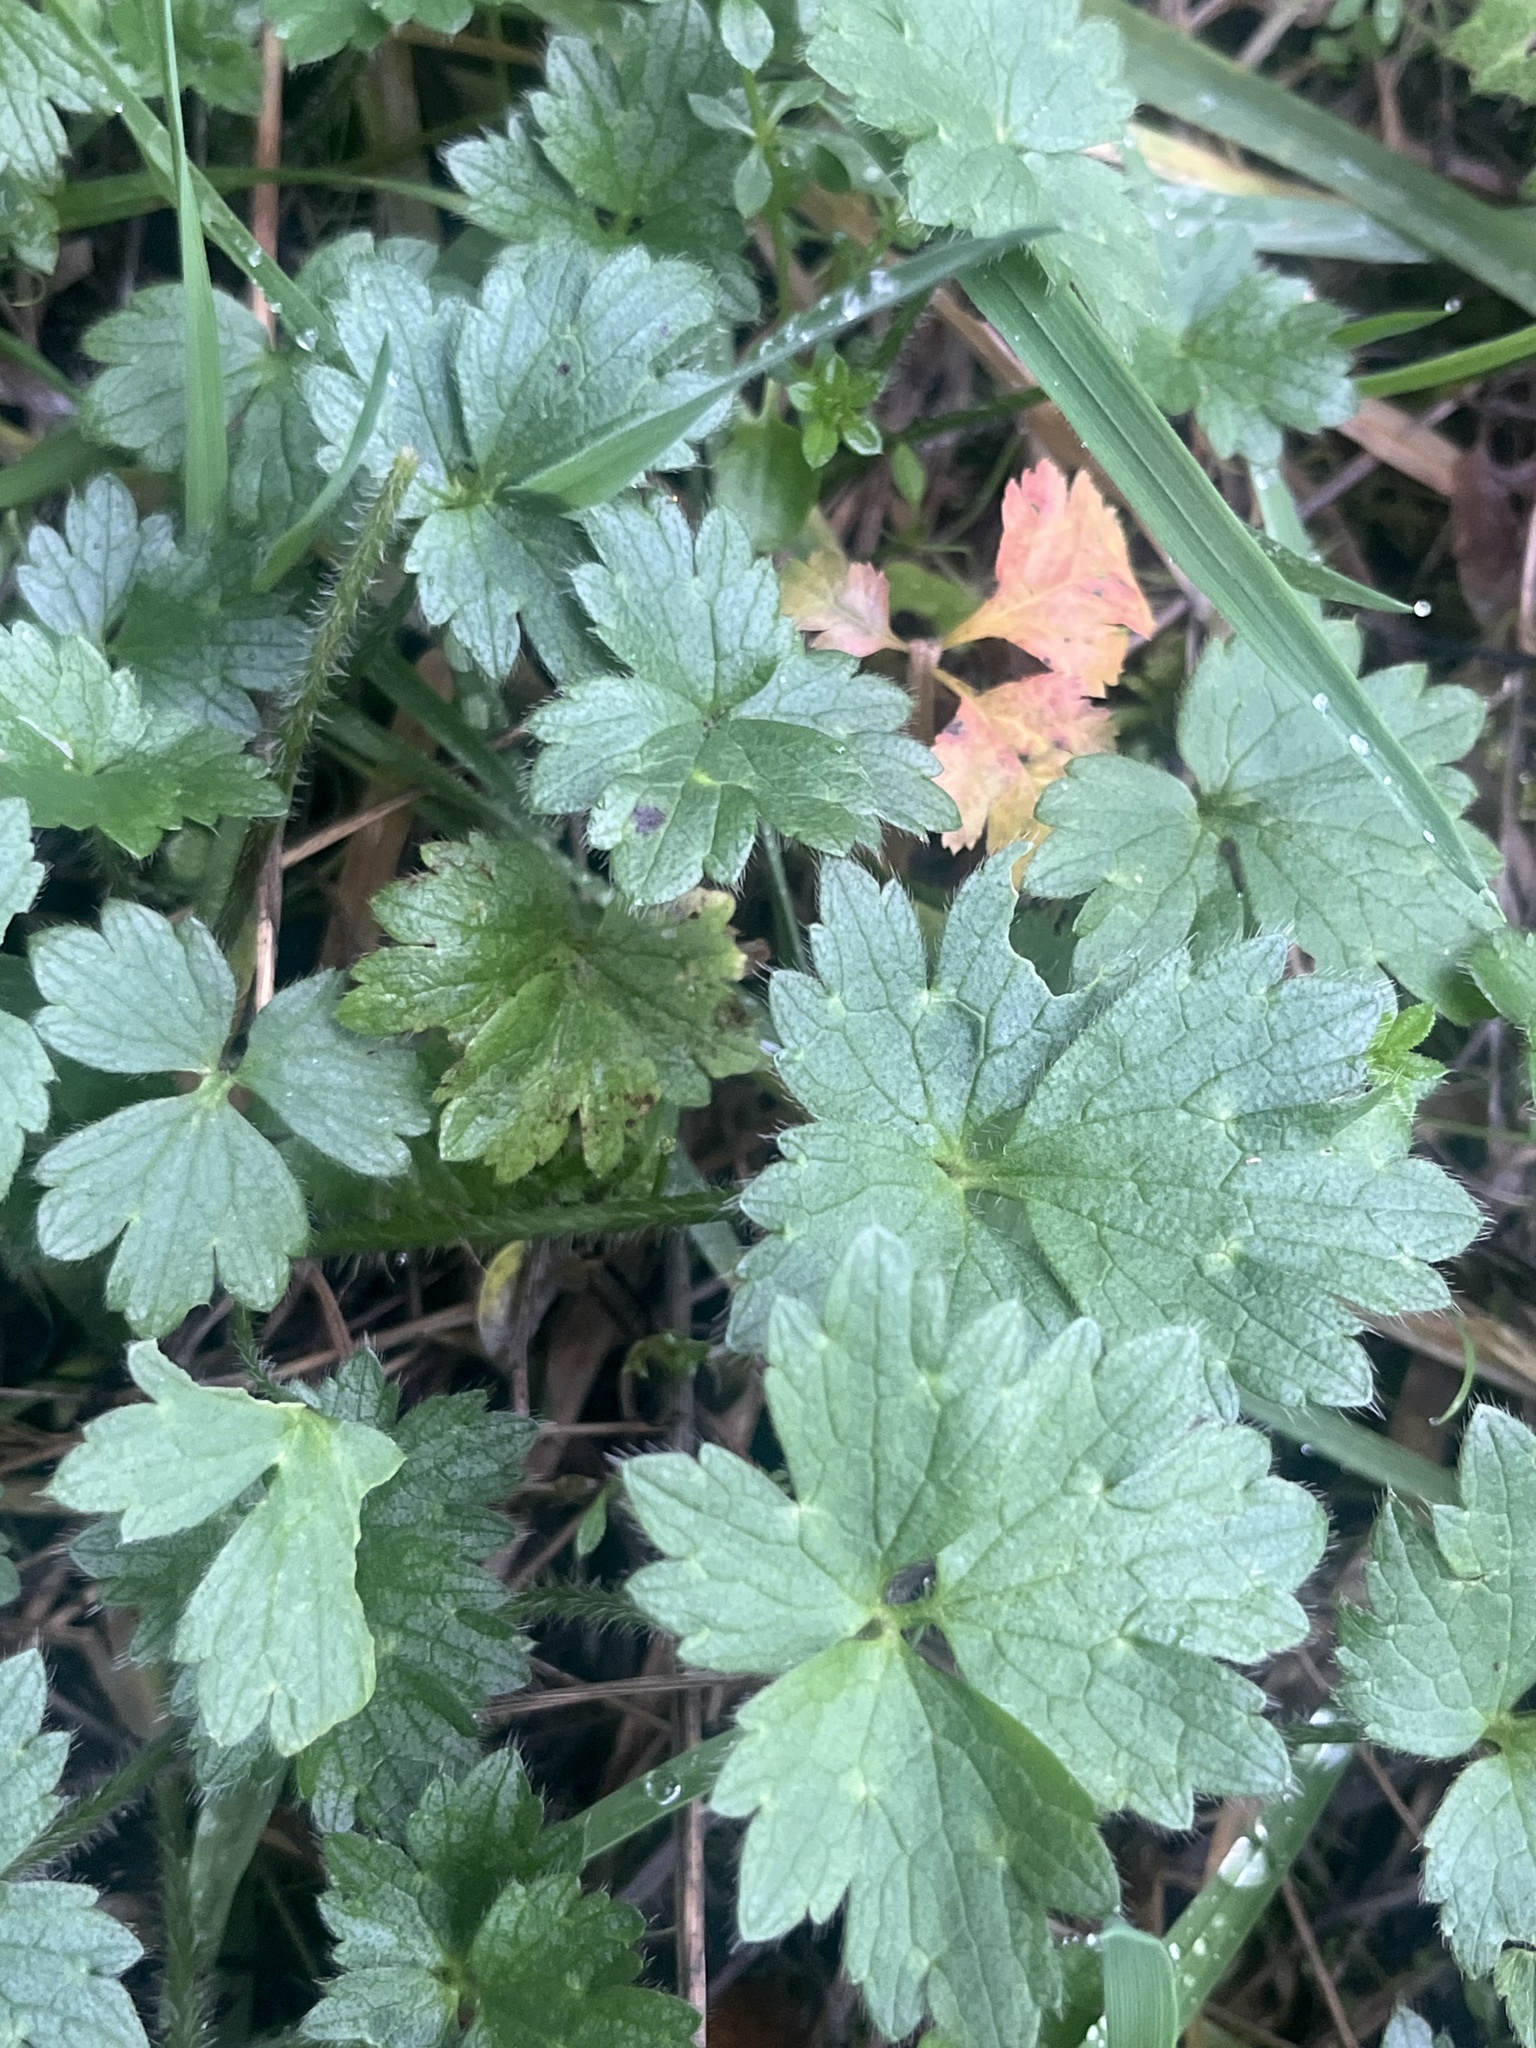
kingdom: Plantae
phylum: Tracheophyta
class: Magnoliopsida
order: Ranunculales
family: Ranunculaceae
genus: Ranunculus
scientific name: Ranunculus repens
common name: Creeping buttercup
